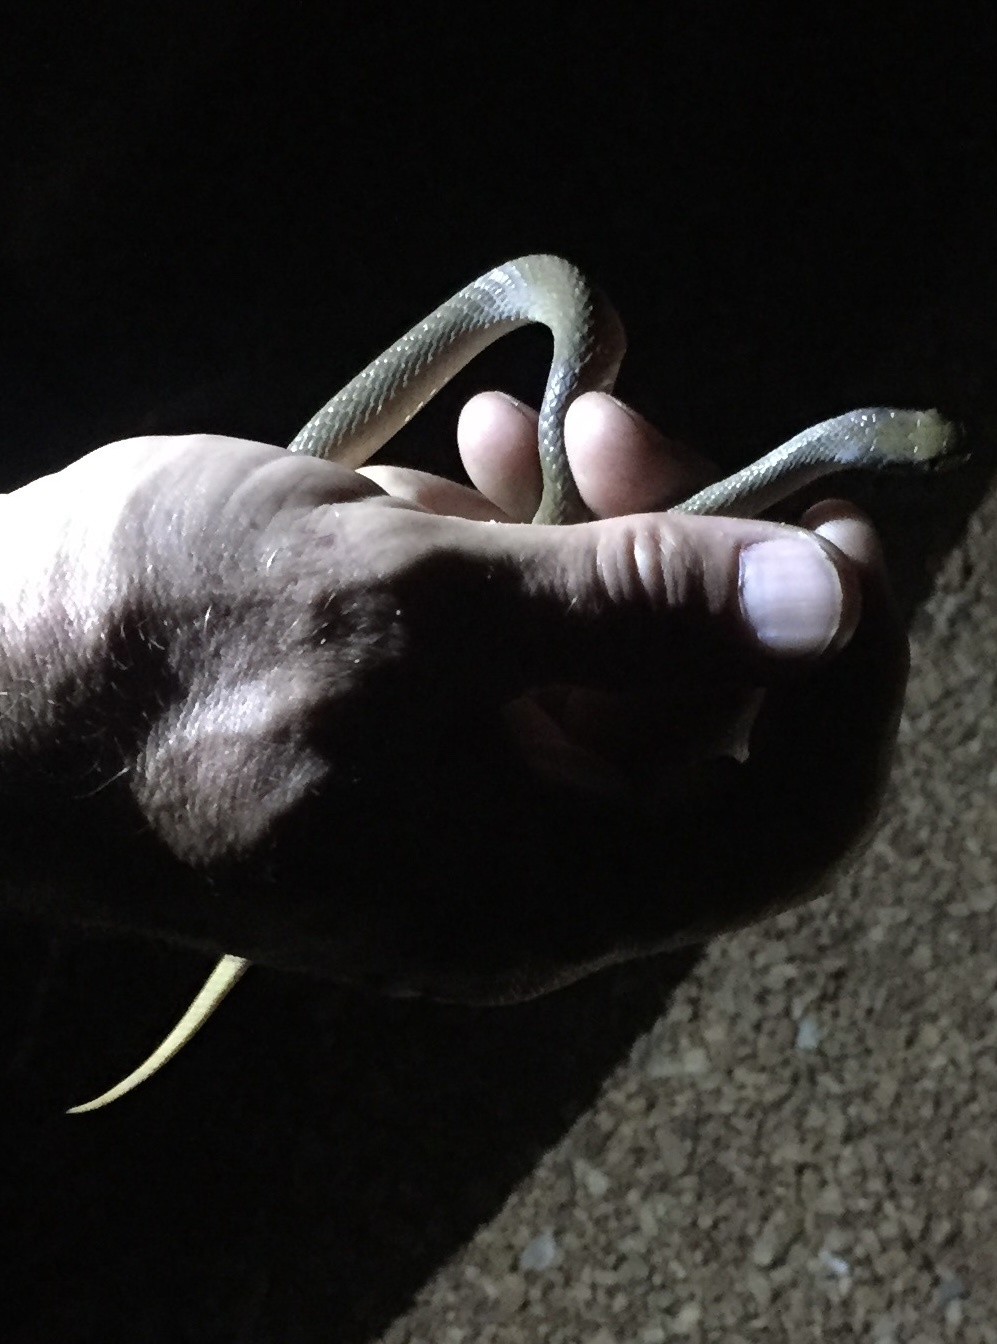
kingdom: Animalia
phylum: Chordata
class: Squamata
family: Colubridae
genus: Crotaphopeltis
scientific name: Crotaphopeltis hotamboeia
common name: Red-lipped snake
